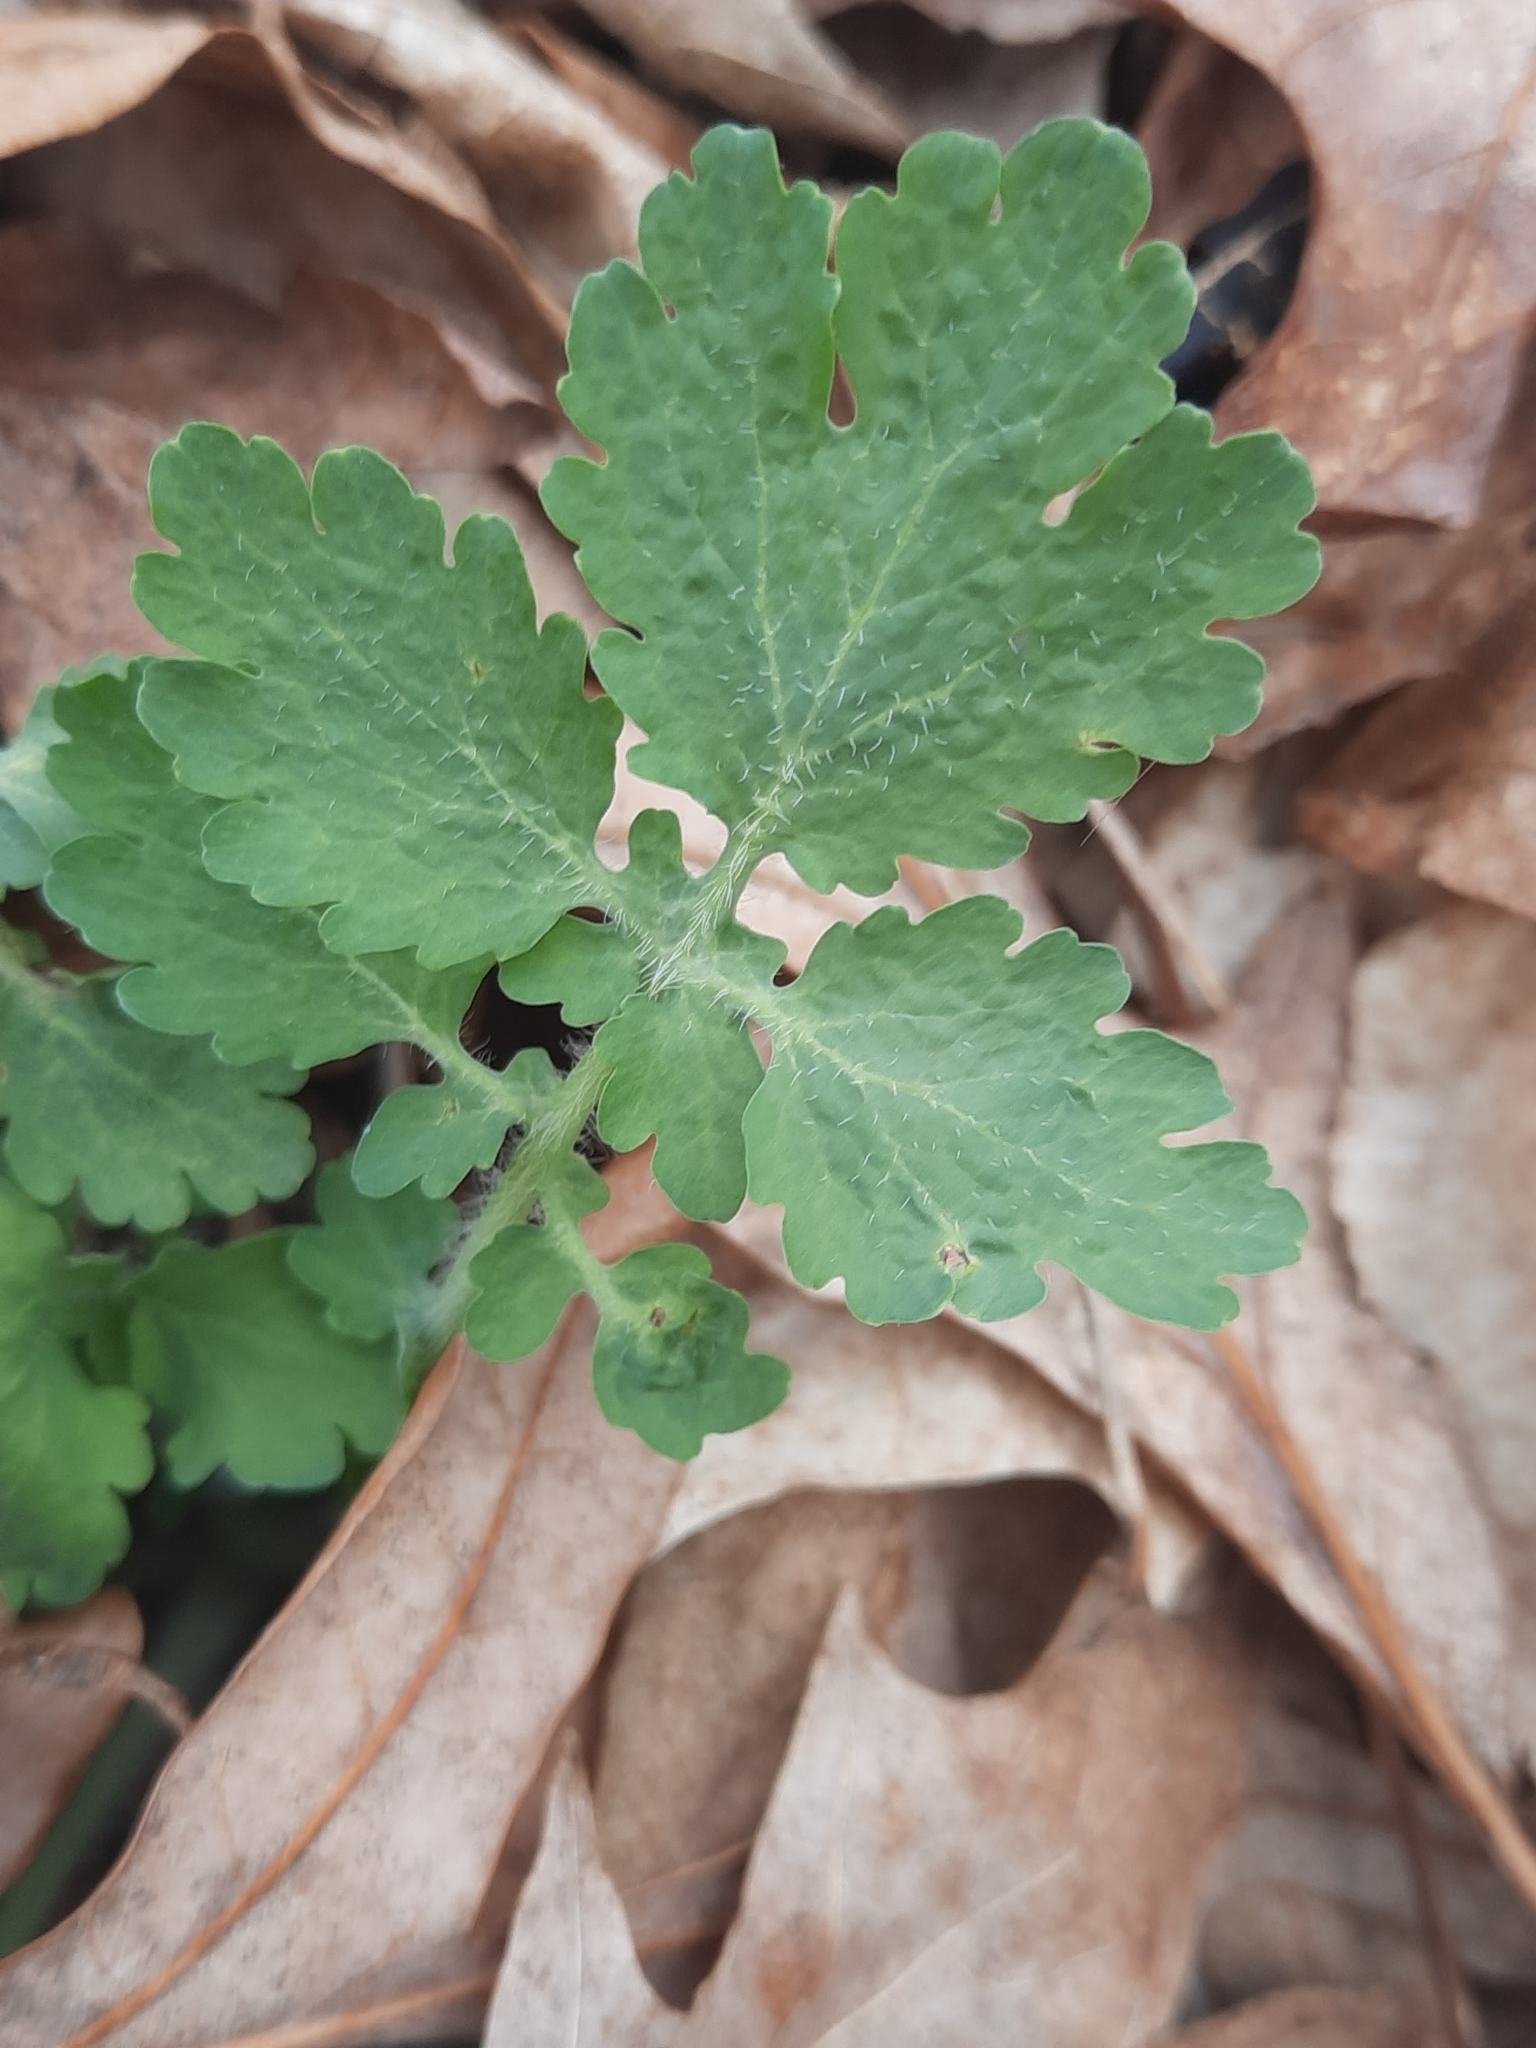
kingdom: Plantae
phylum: Tracheophyta
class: Magnoliopsida
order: Ranunculales
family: Papaveraceae
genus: Chelidonium
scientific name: Chelidonium majus
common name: Greater celandine
